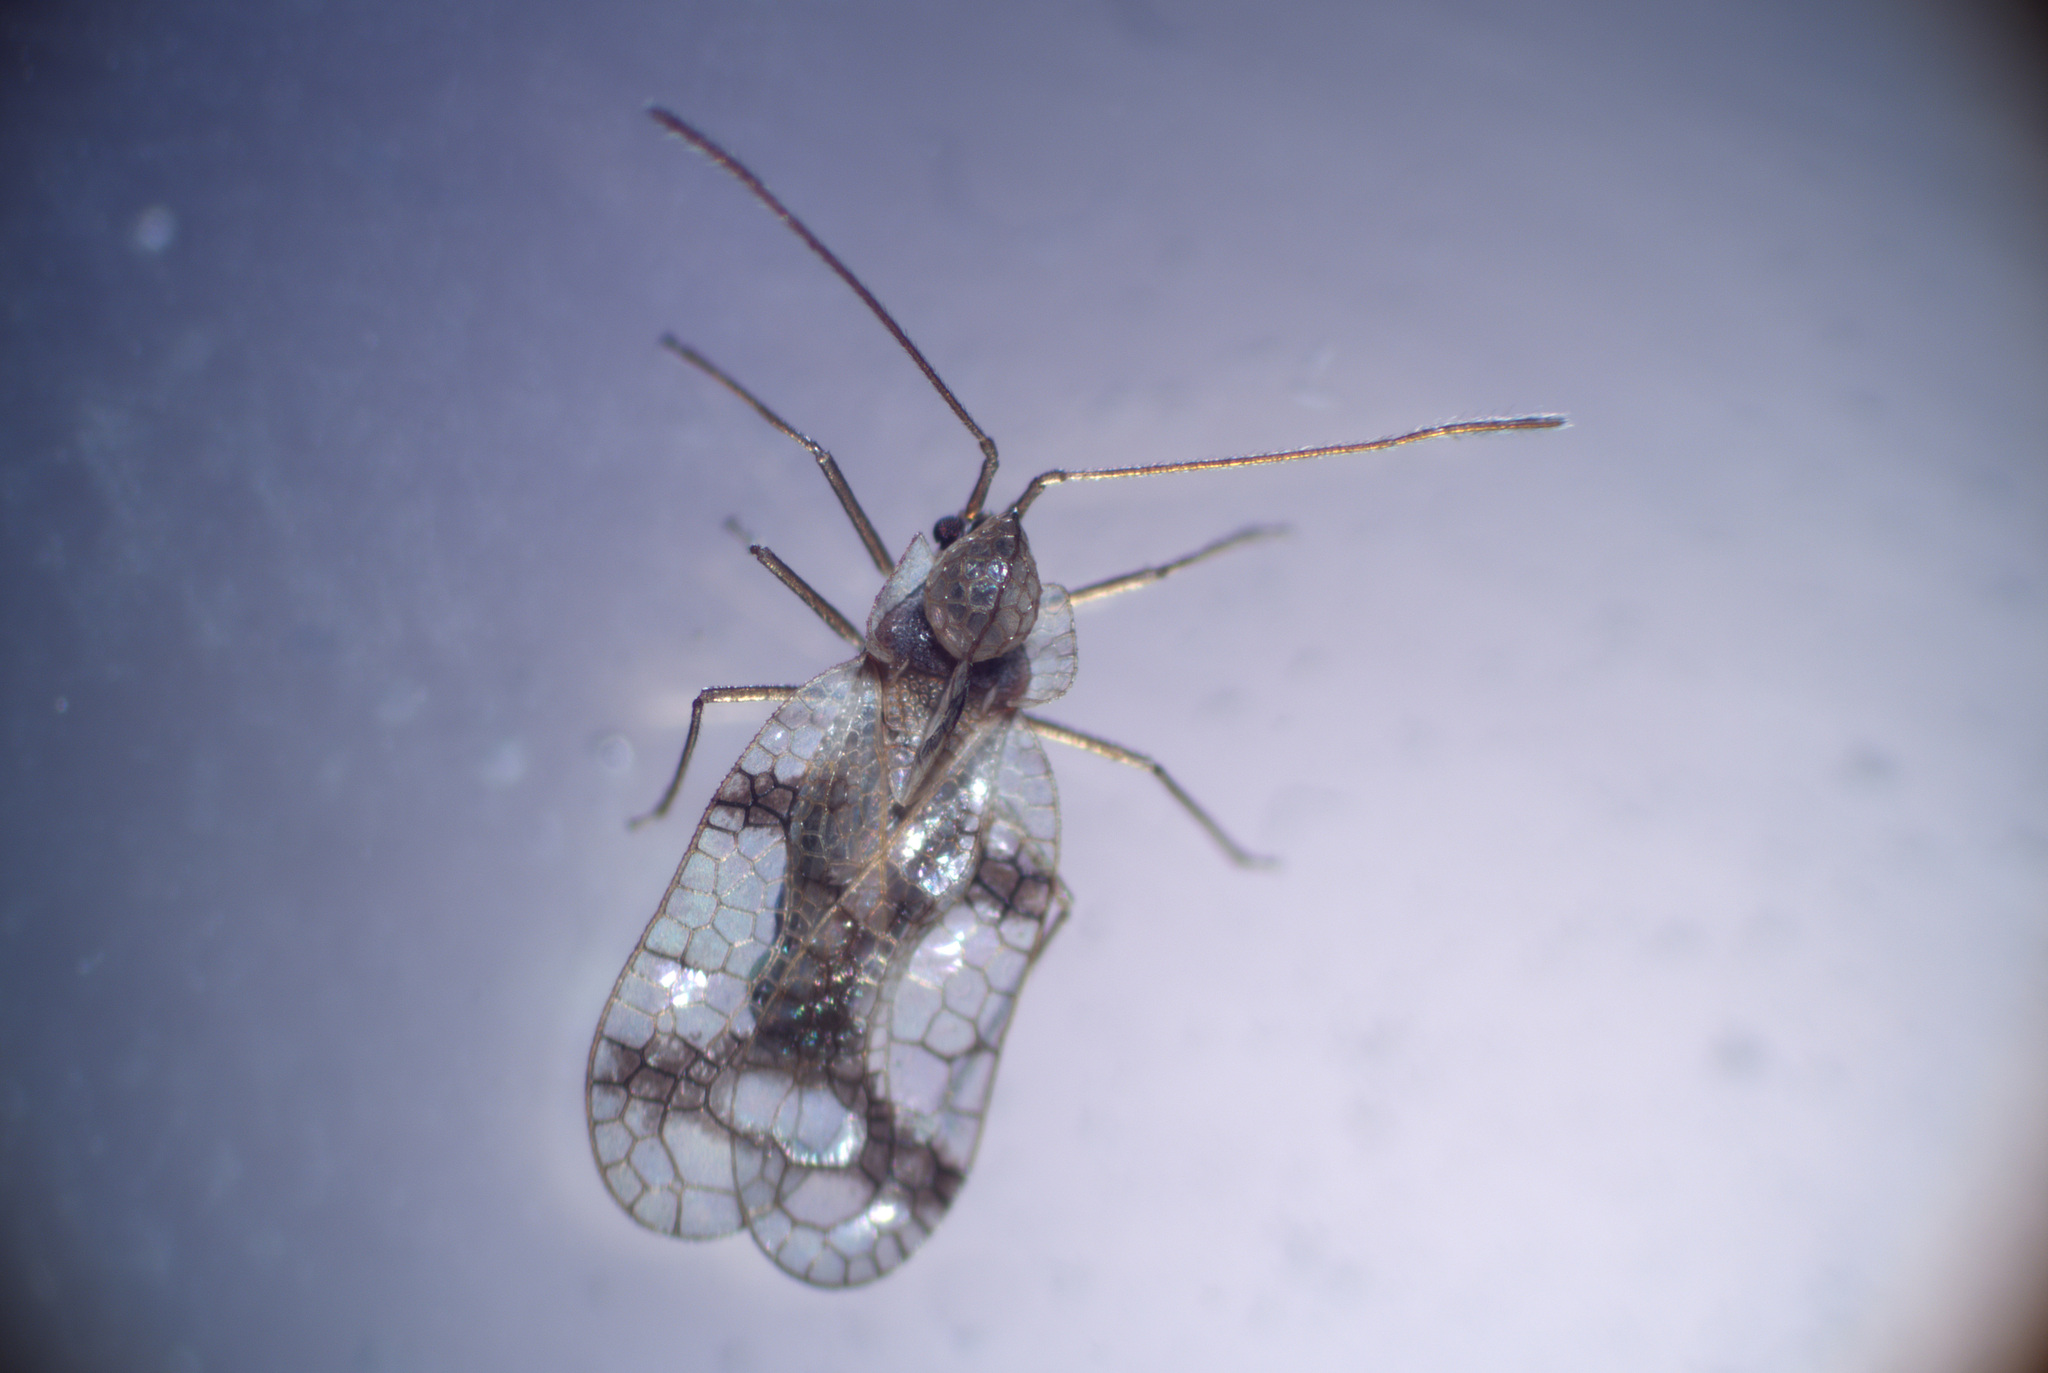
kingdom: Animalia
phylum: Arthropoda
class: Insecta
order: Hemiptera
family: Tingidae
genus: Stephanitis
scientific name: Stephanitis pyrioides
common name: Azalea lace bug
